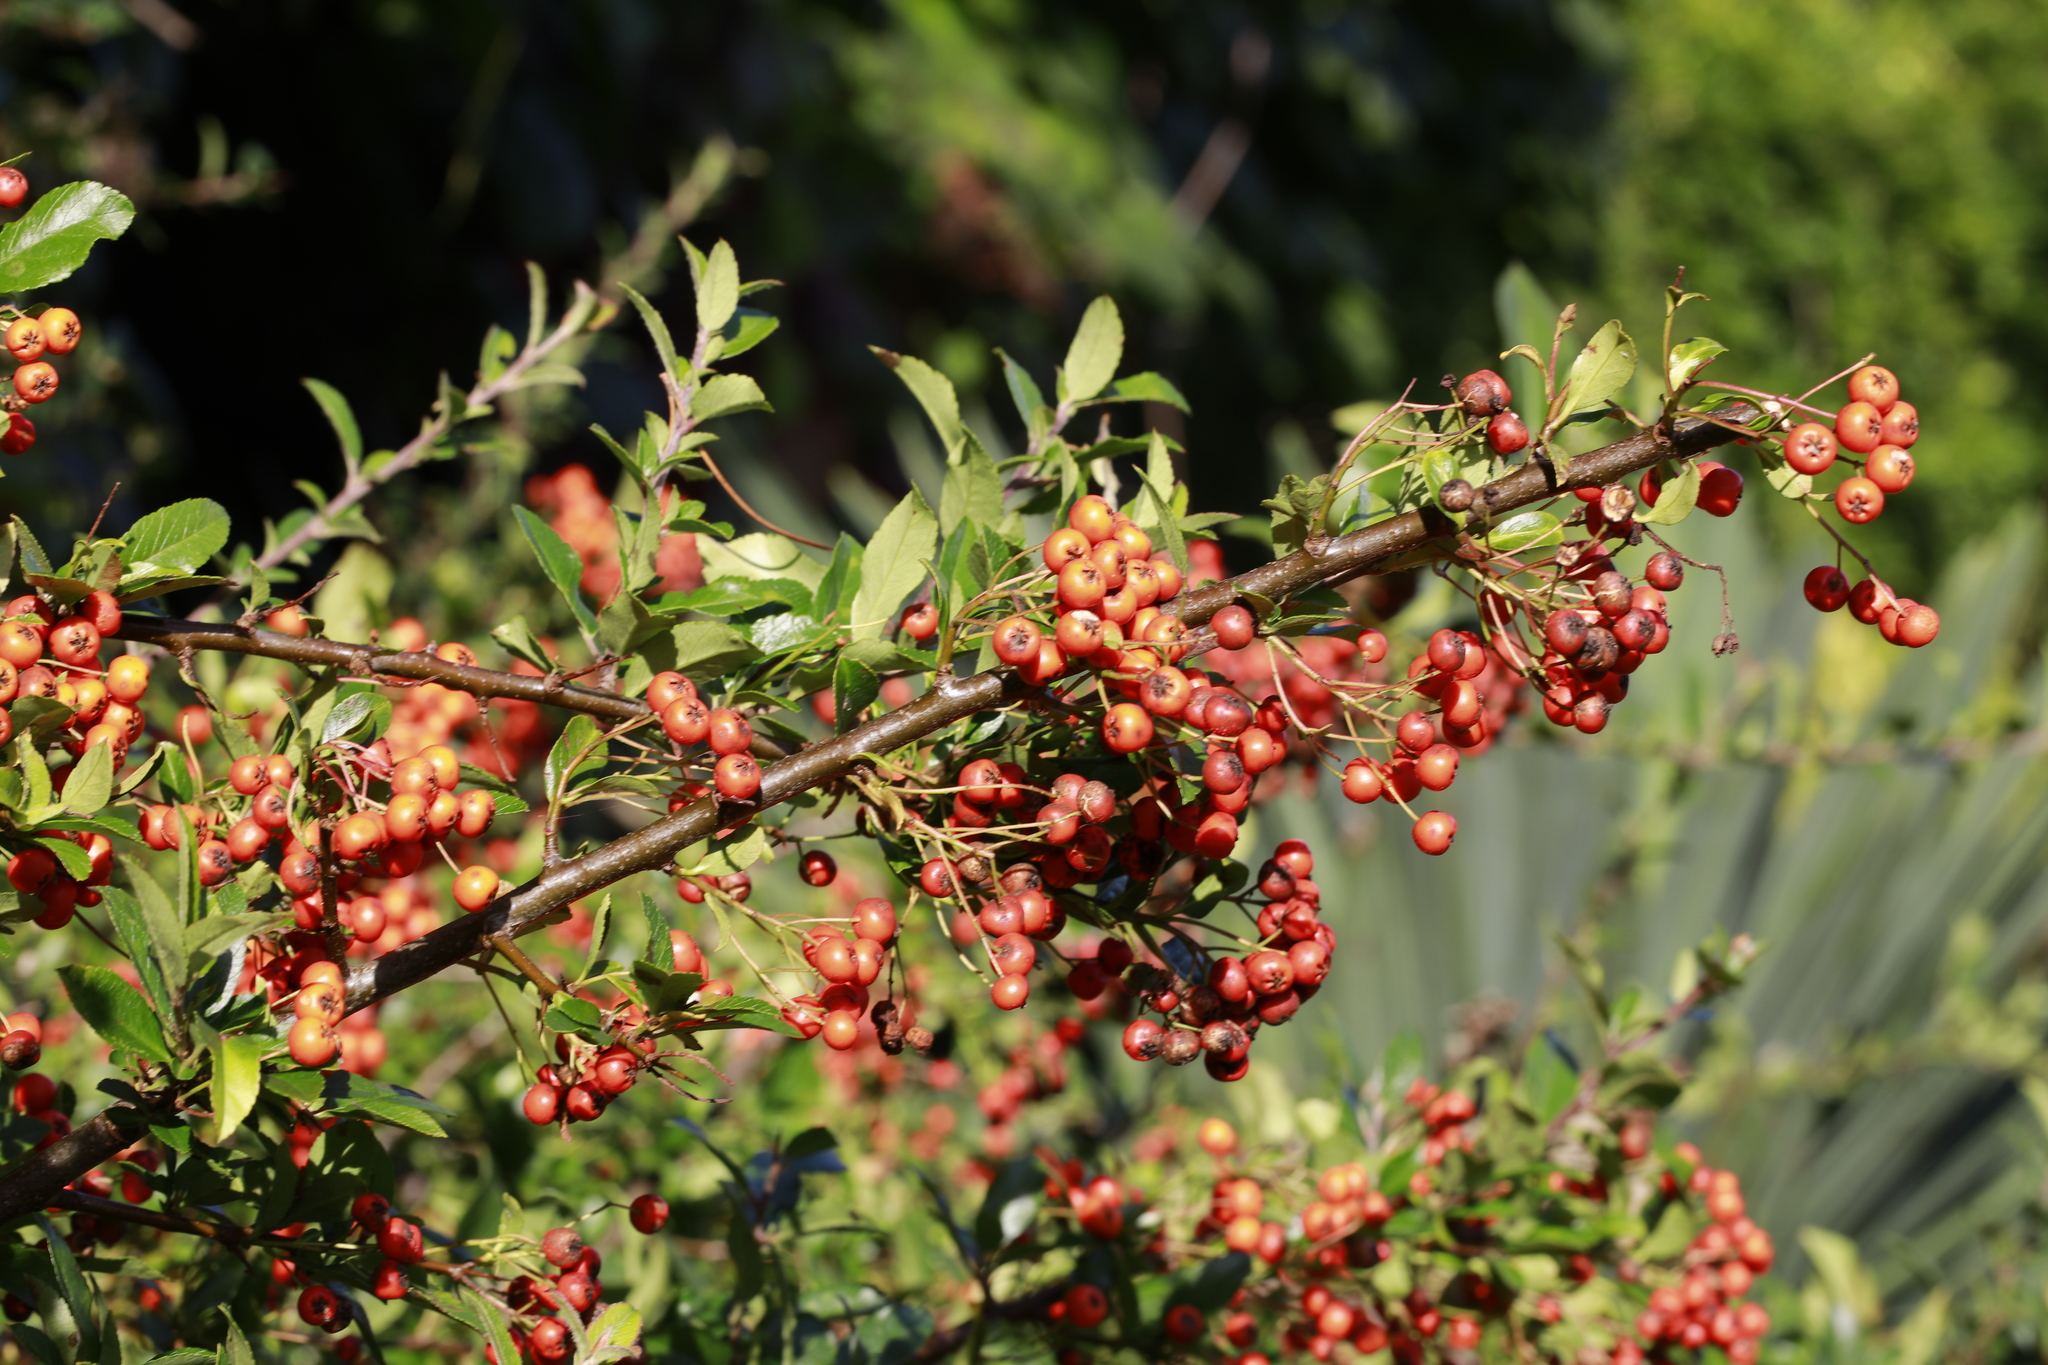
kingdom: Plantae
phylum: Tracheophyta
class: Magnoliopsida
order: Rosales
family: Rosaceae
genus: Pyracantha
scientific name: Pyracantha coccinea
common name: Firethorn
